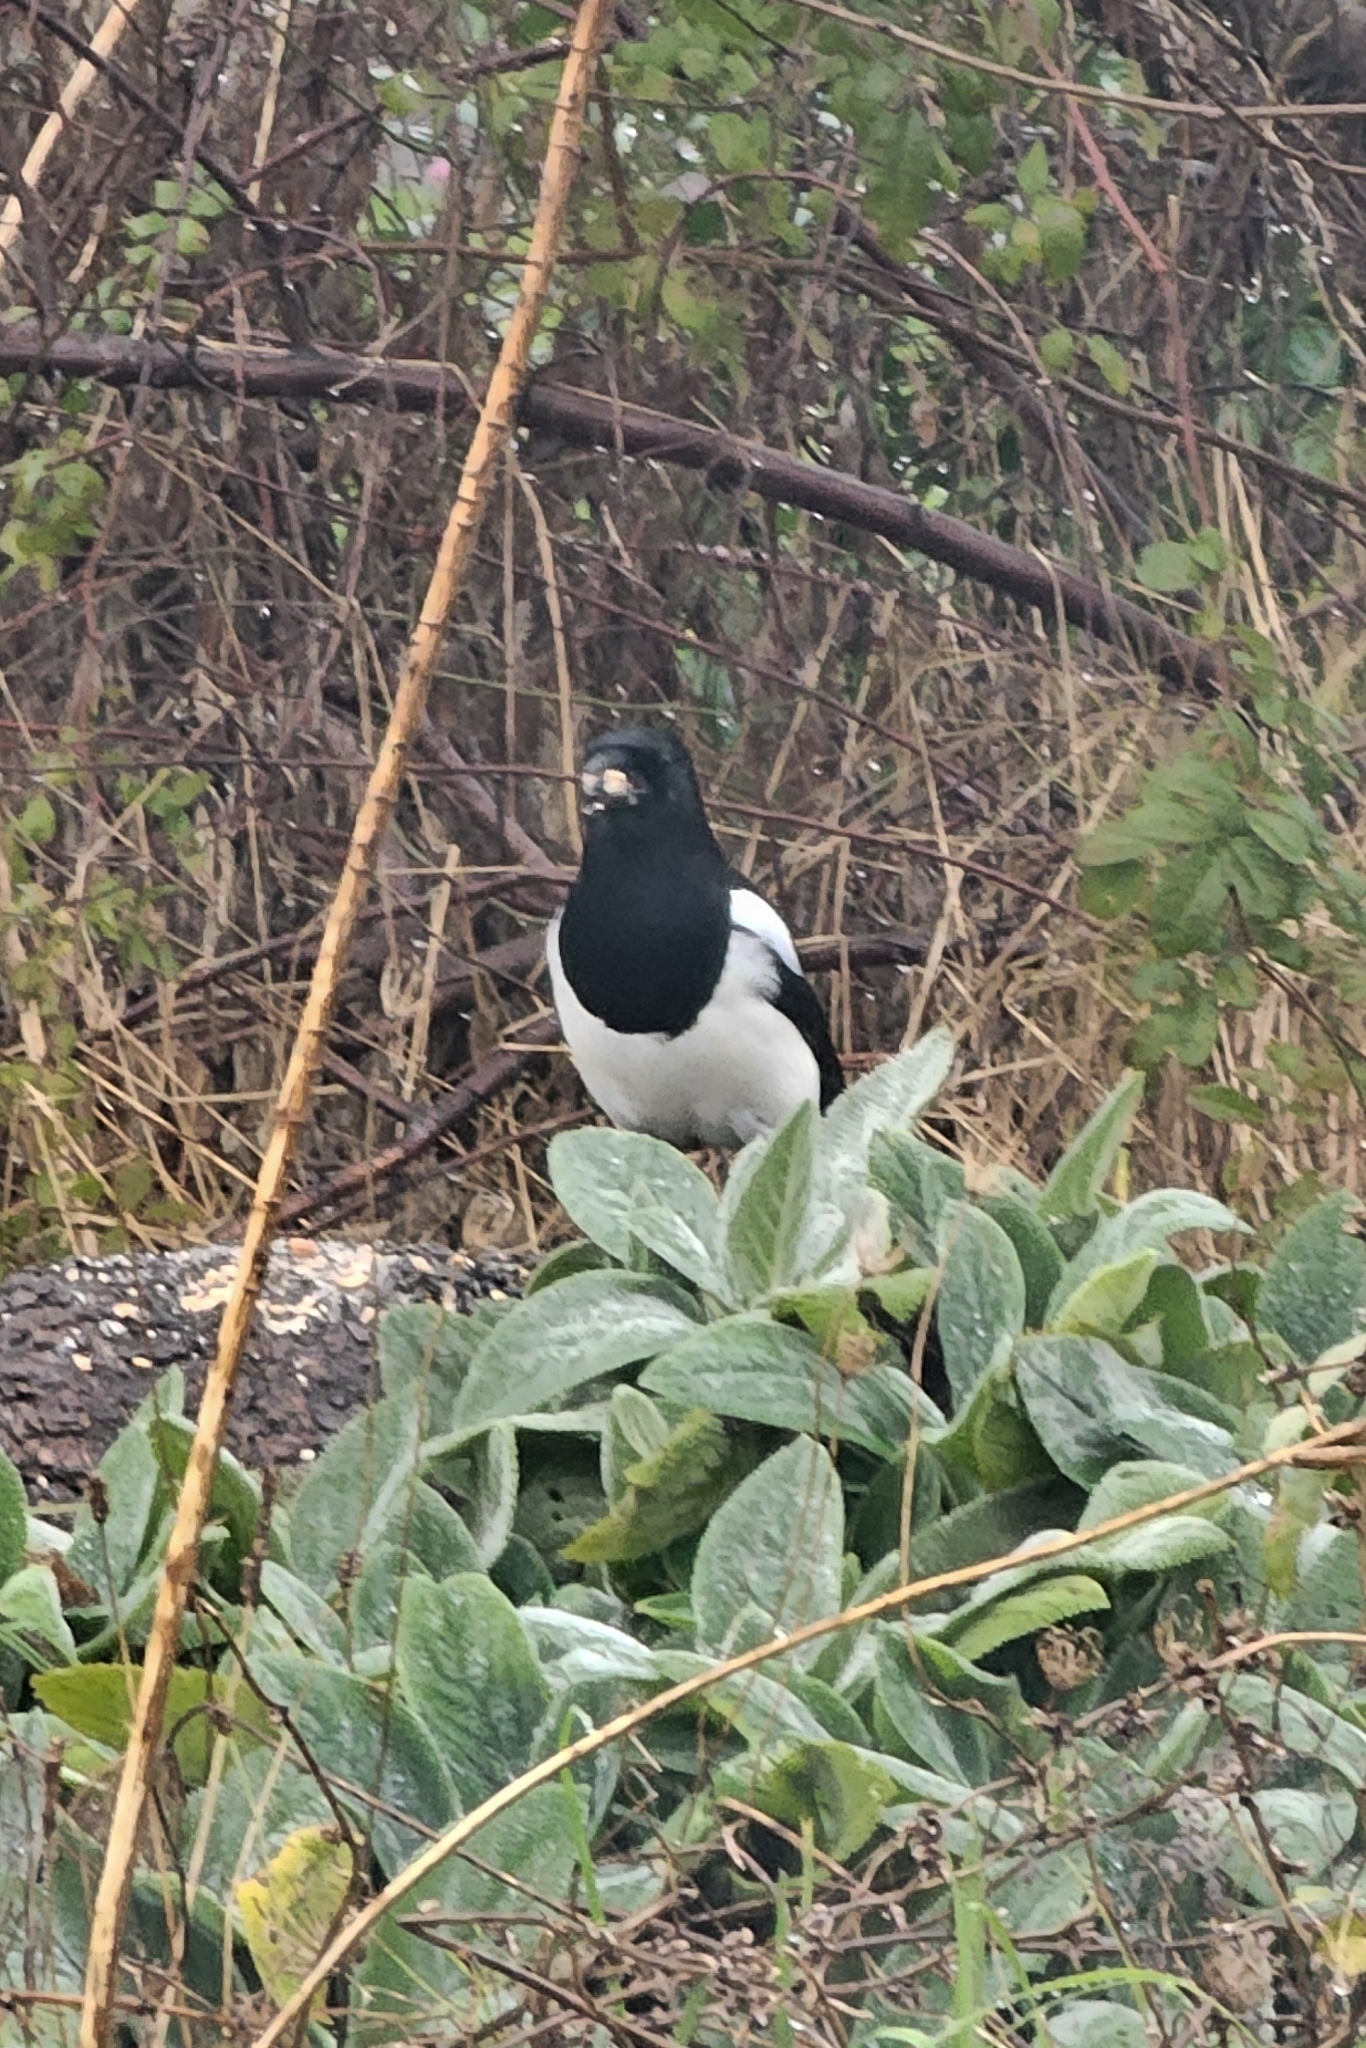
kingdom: Animalia
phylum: Chordata
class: Aves
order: Passeriformes
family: Corvidae
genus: Pica
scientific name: Pica pica
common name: Eurasian magpie
